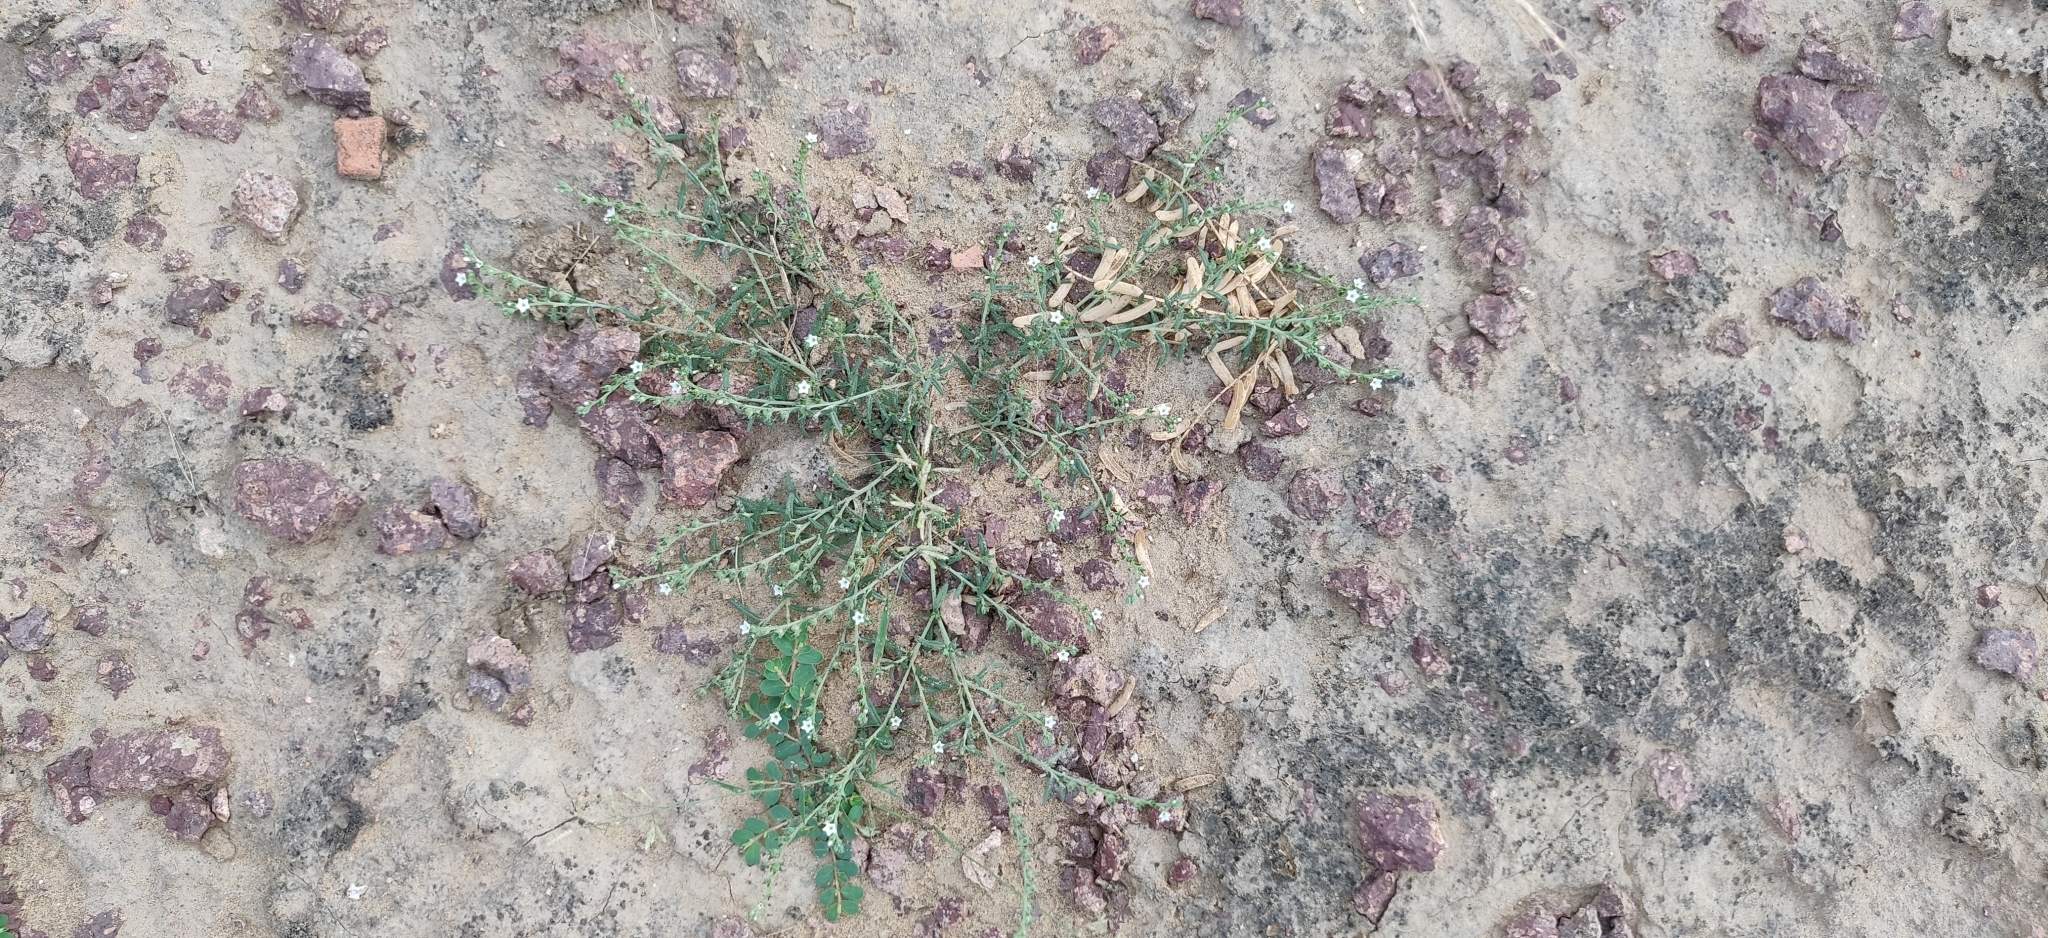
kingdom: Plantae
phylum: Tracheophyta
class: Magnoliopsida
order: Boraginales
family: Heliotropiaceae
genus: Euploca
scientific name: Euploca rariflora
